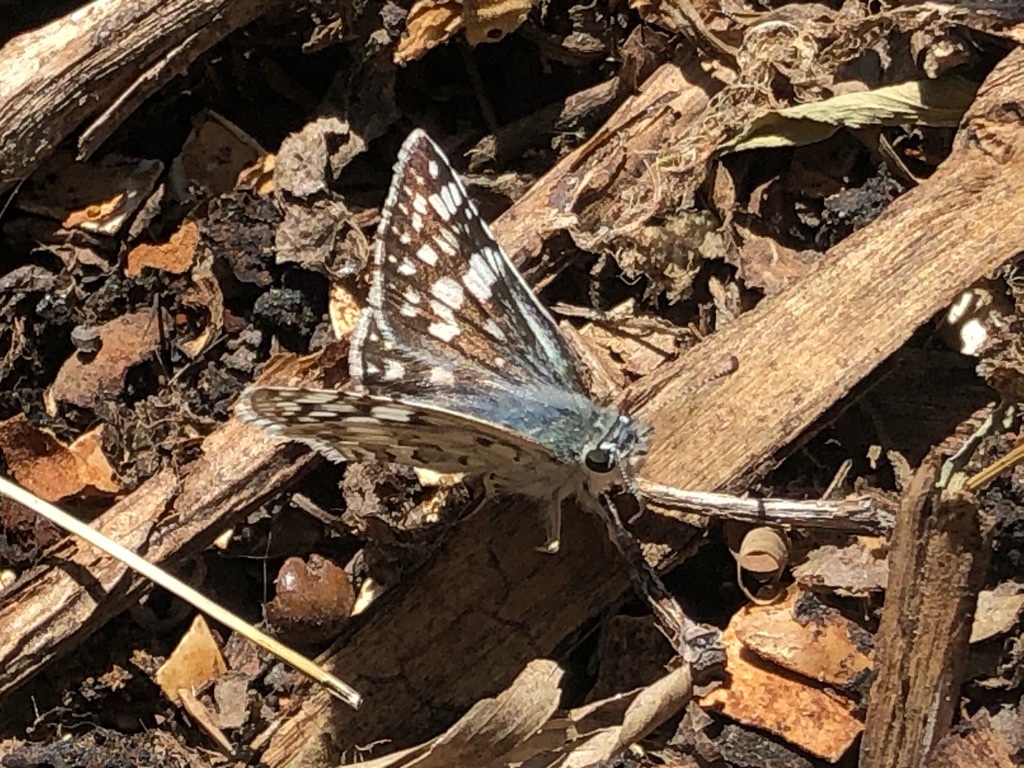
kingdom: Animalia
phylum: Arthropoda
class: Insecta
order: Lepidoptera
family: Hesperiidae
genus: Burnsius
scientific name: Burnsius communis
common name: Common checkered-skipper
